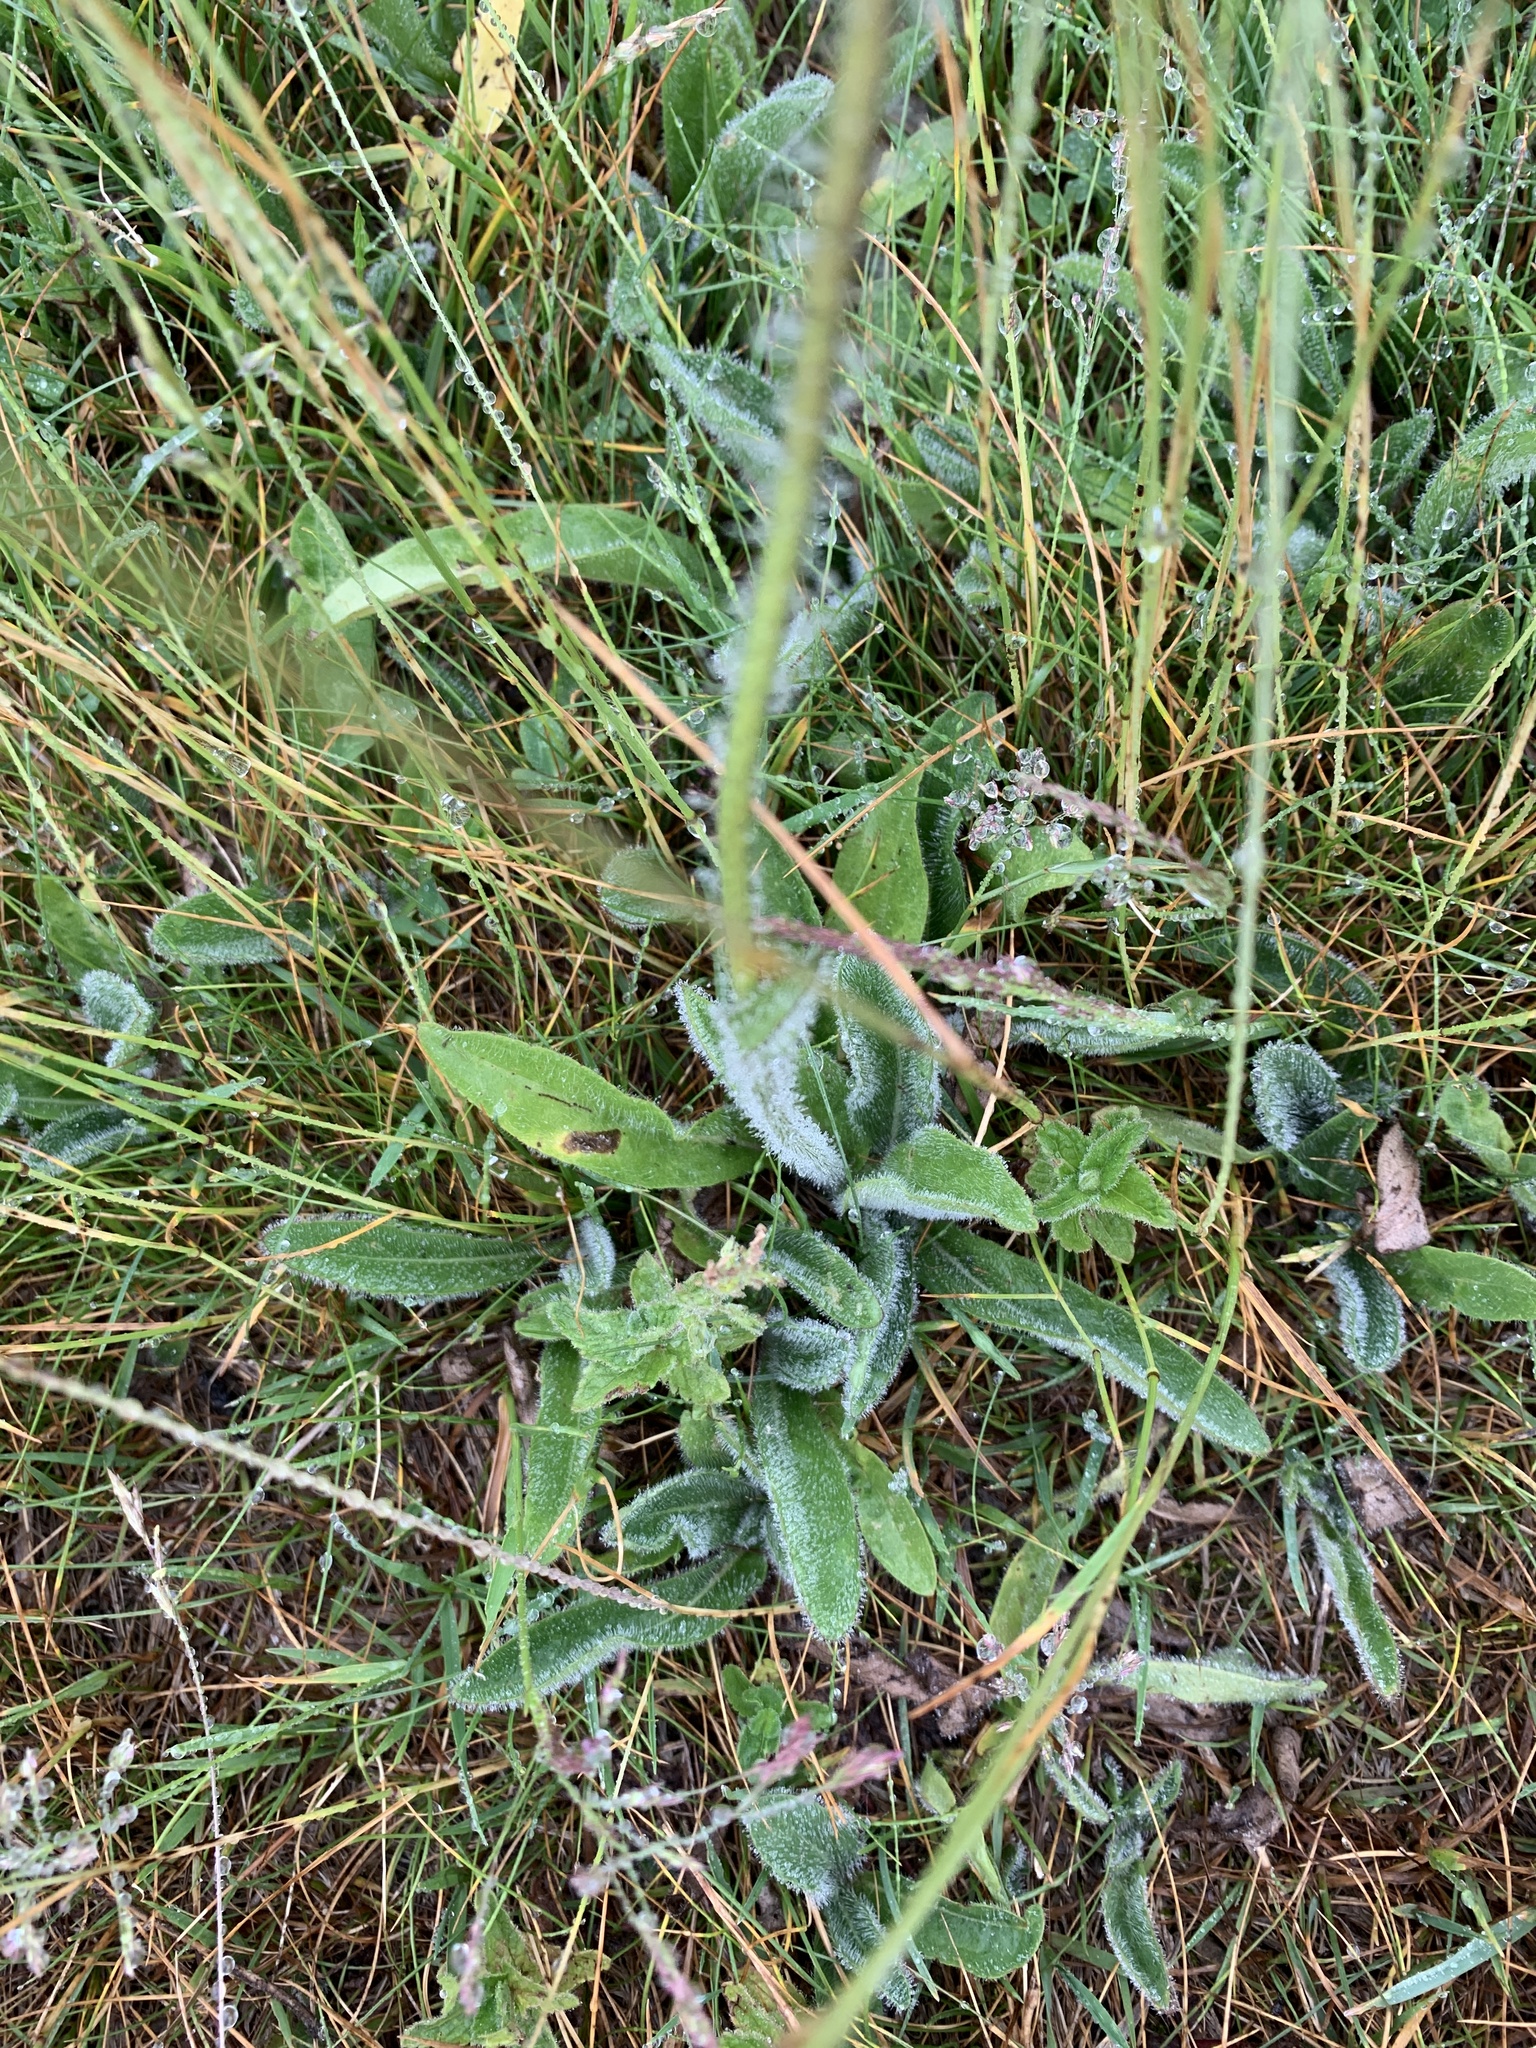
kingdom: Plantae
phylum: Tracheophyta
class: Magnoliopsida
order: Asterales
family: Asteraceae
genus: Pilosella
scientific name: Pilosella aurantiaca
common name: Fox-and-cubs
